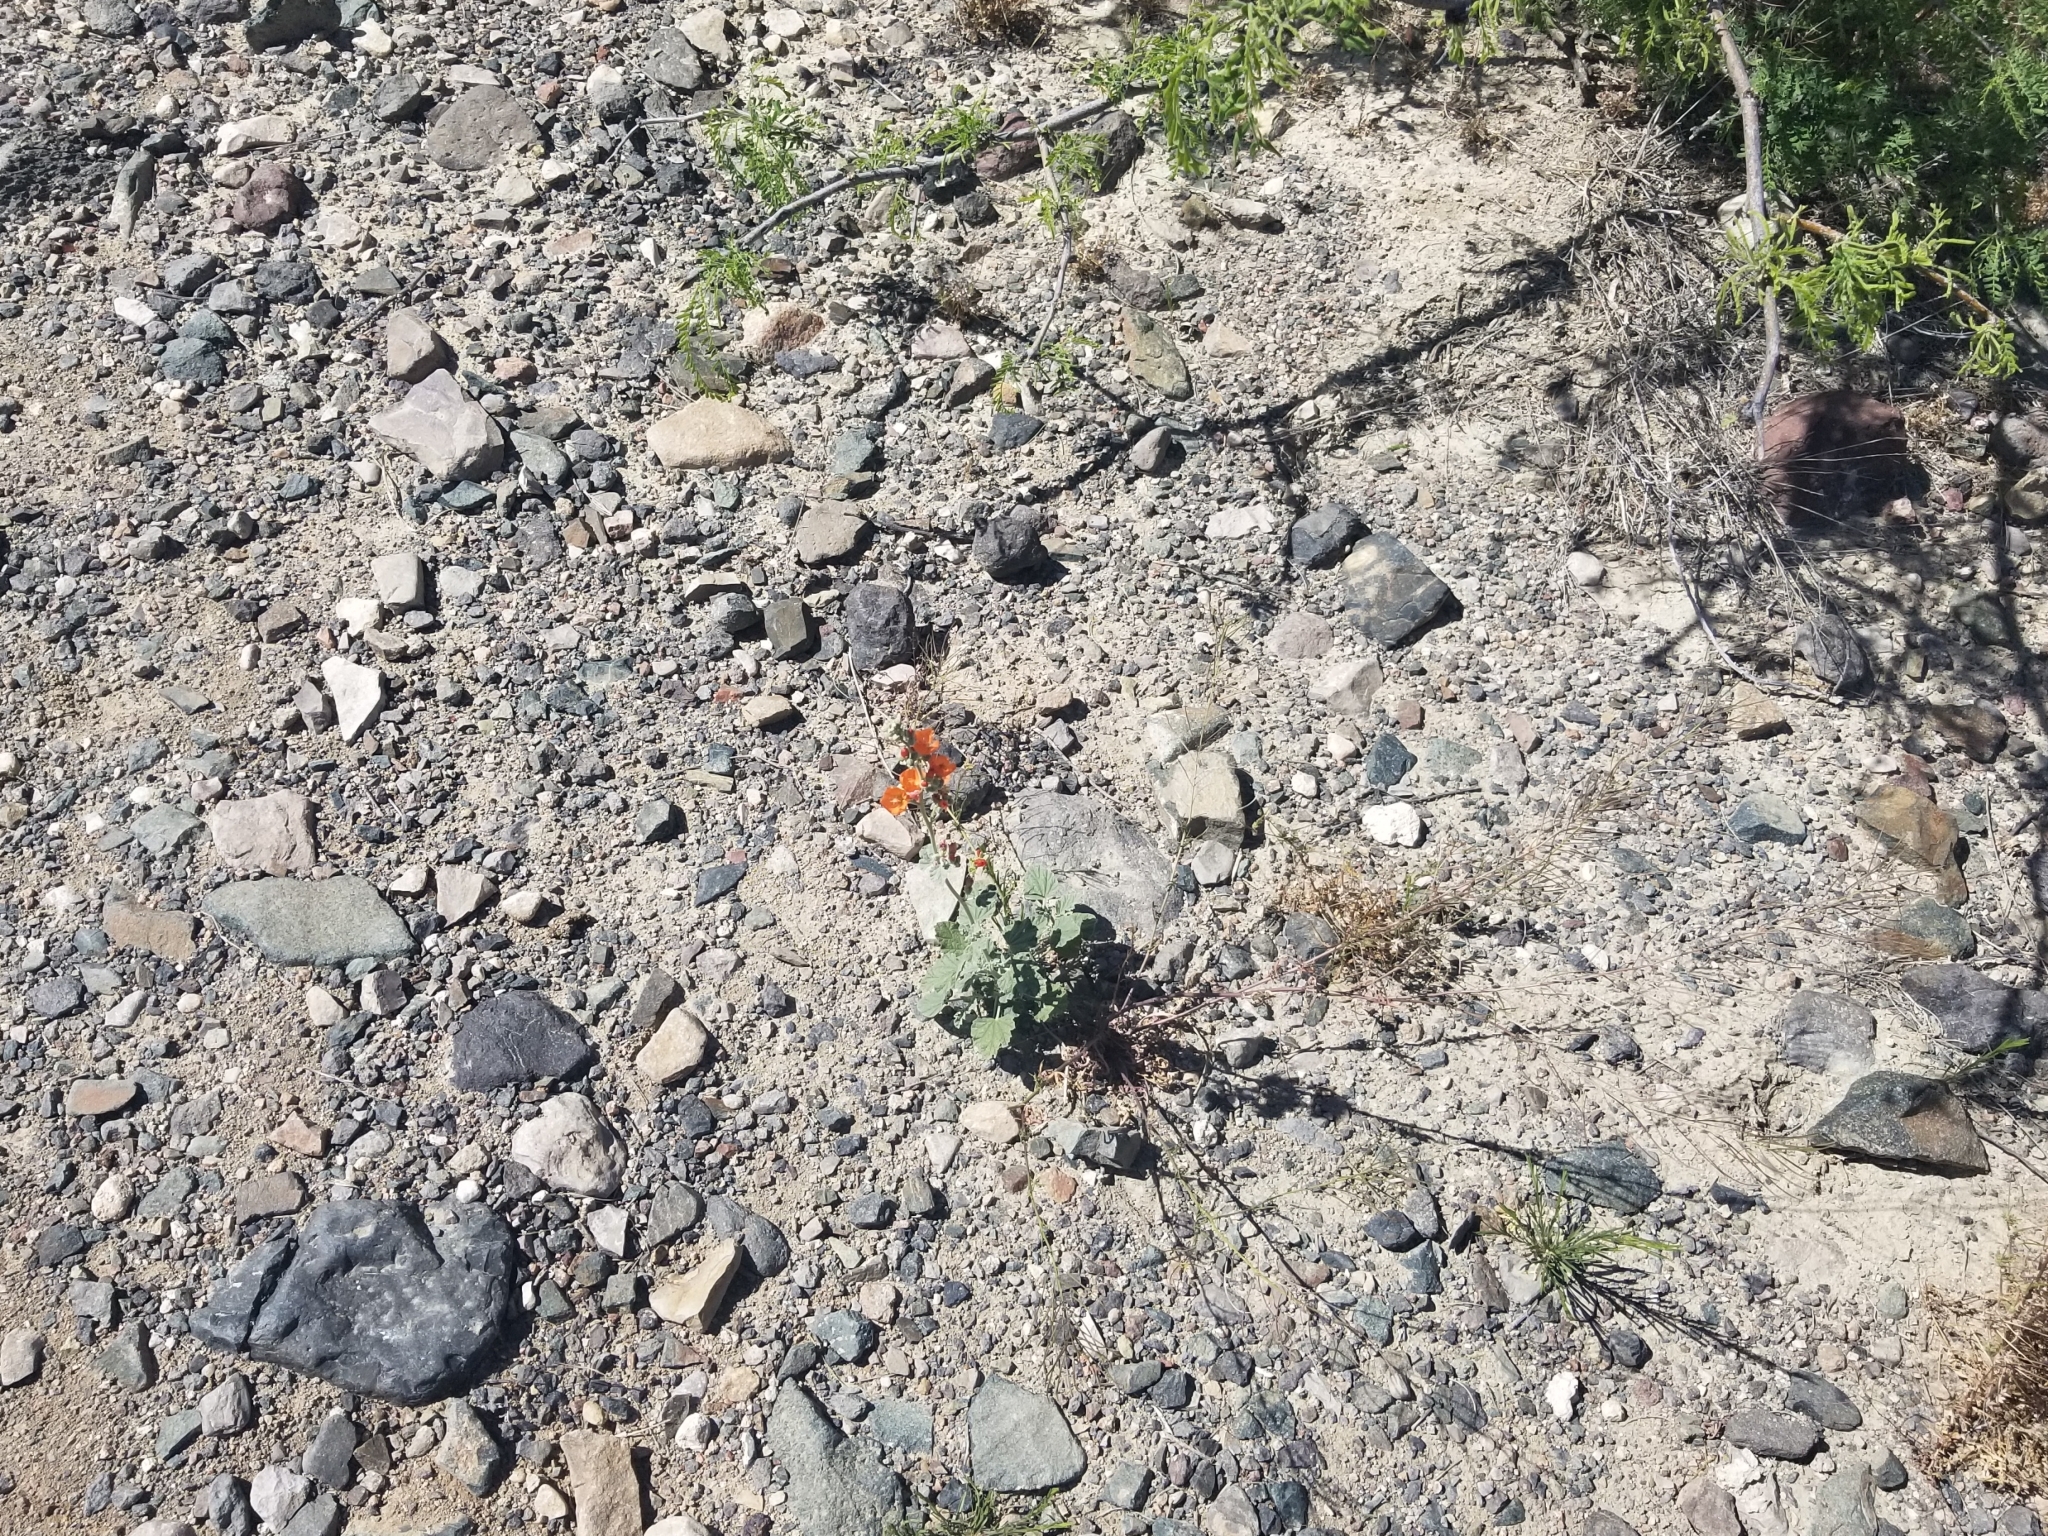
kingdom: Plantae
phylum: Tracheophyta
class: Magnoliopsida
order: Malvales
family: Malvaceae
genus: Sphaeralcea
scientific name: Sphaeralcea coulteri
